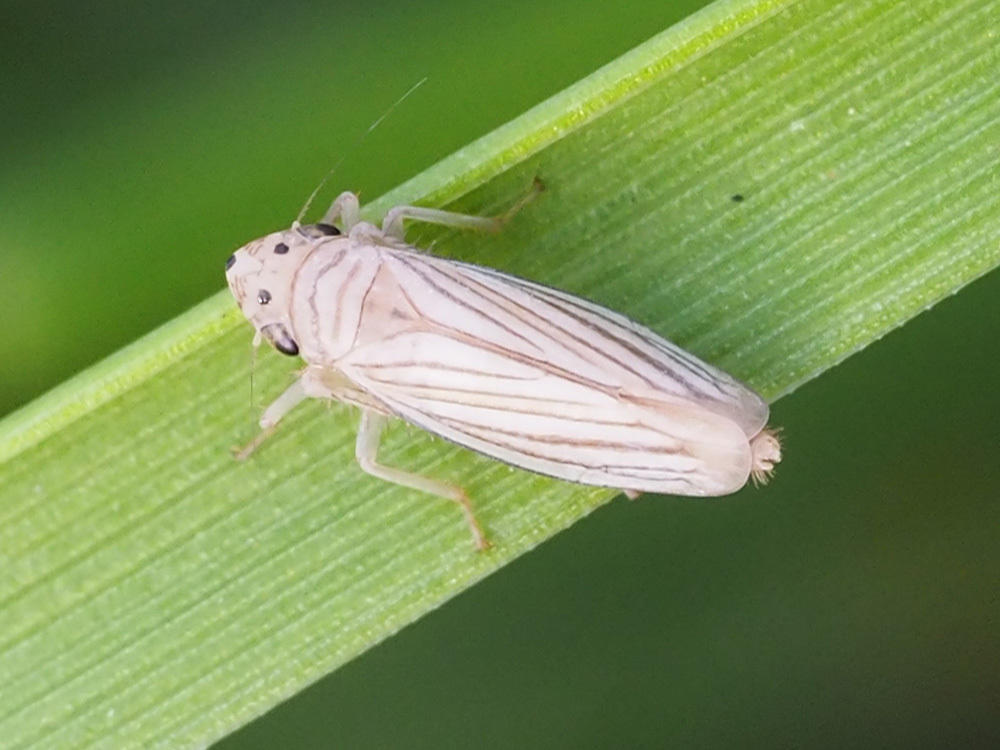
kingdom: Animalia
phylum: Arthropoda
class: Insecta
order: Hemiptera
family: Cicadellidae
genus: Provancherana
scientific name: Provancherana tripunctata
